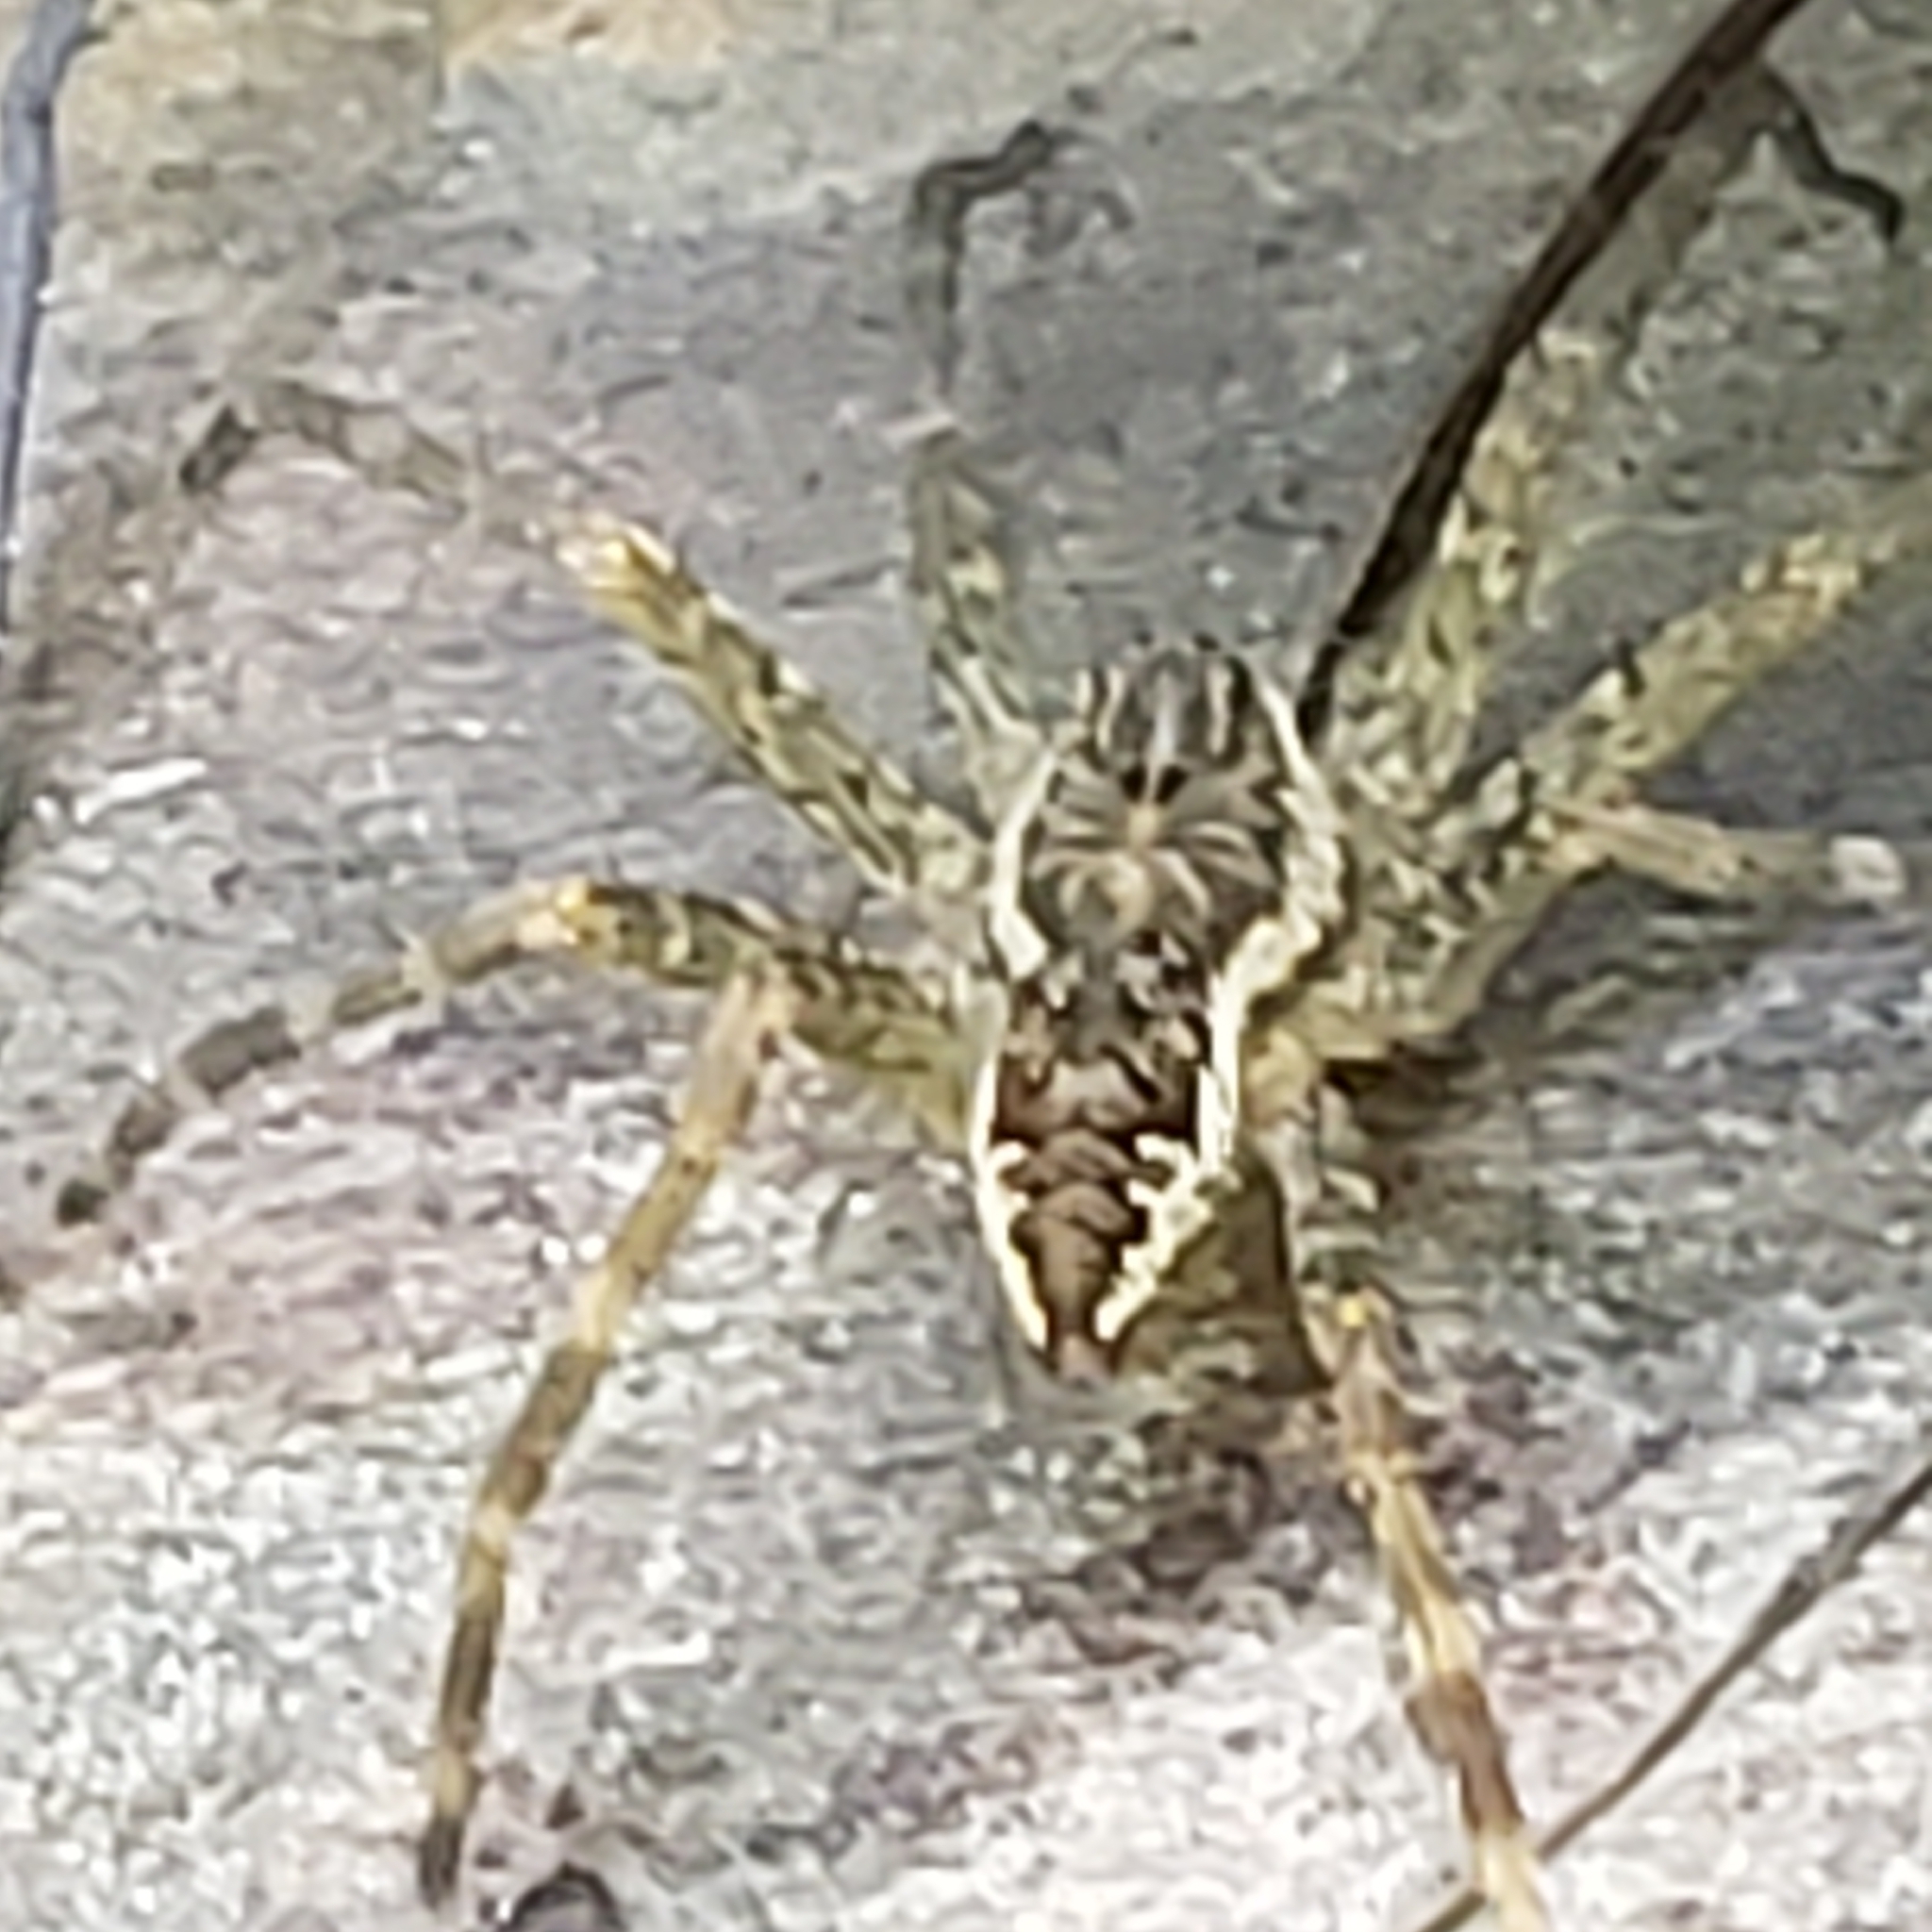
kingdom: Animalia
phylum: Arthropoda
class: Arachnida
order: Araneae
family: Pisauridae
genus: Dolomedes
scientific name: Dolomedes vittatus
